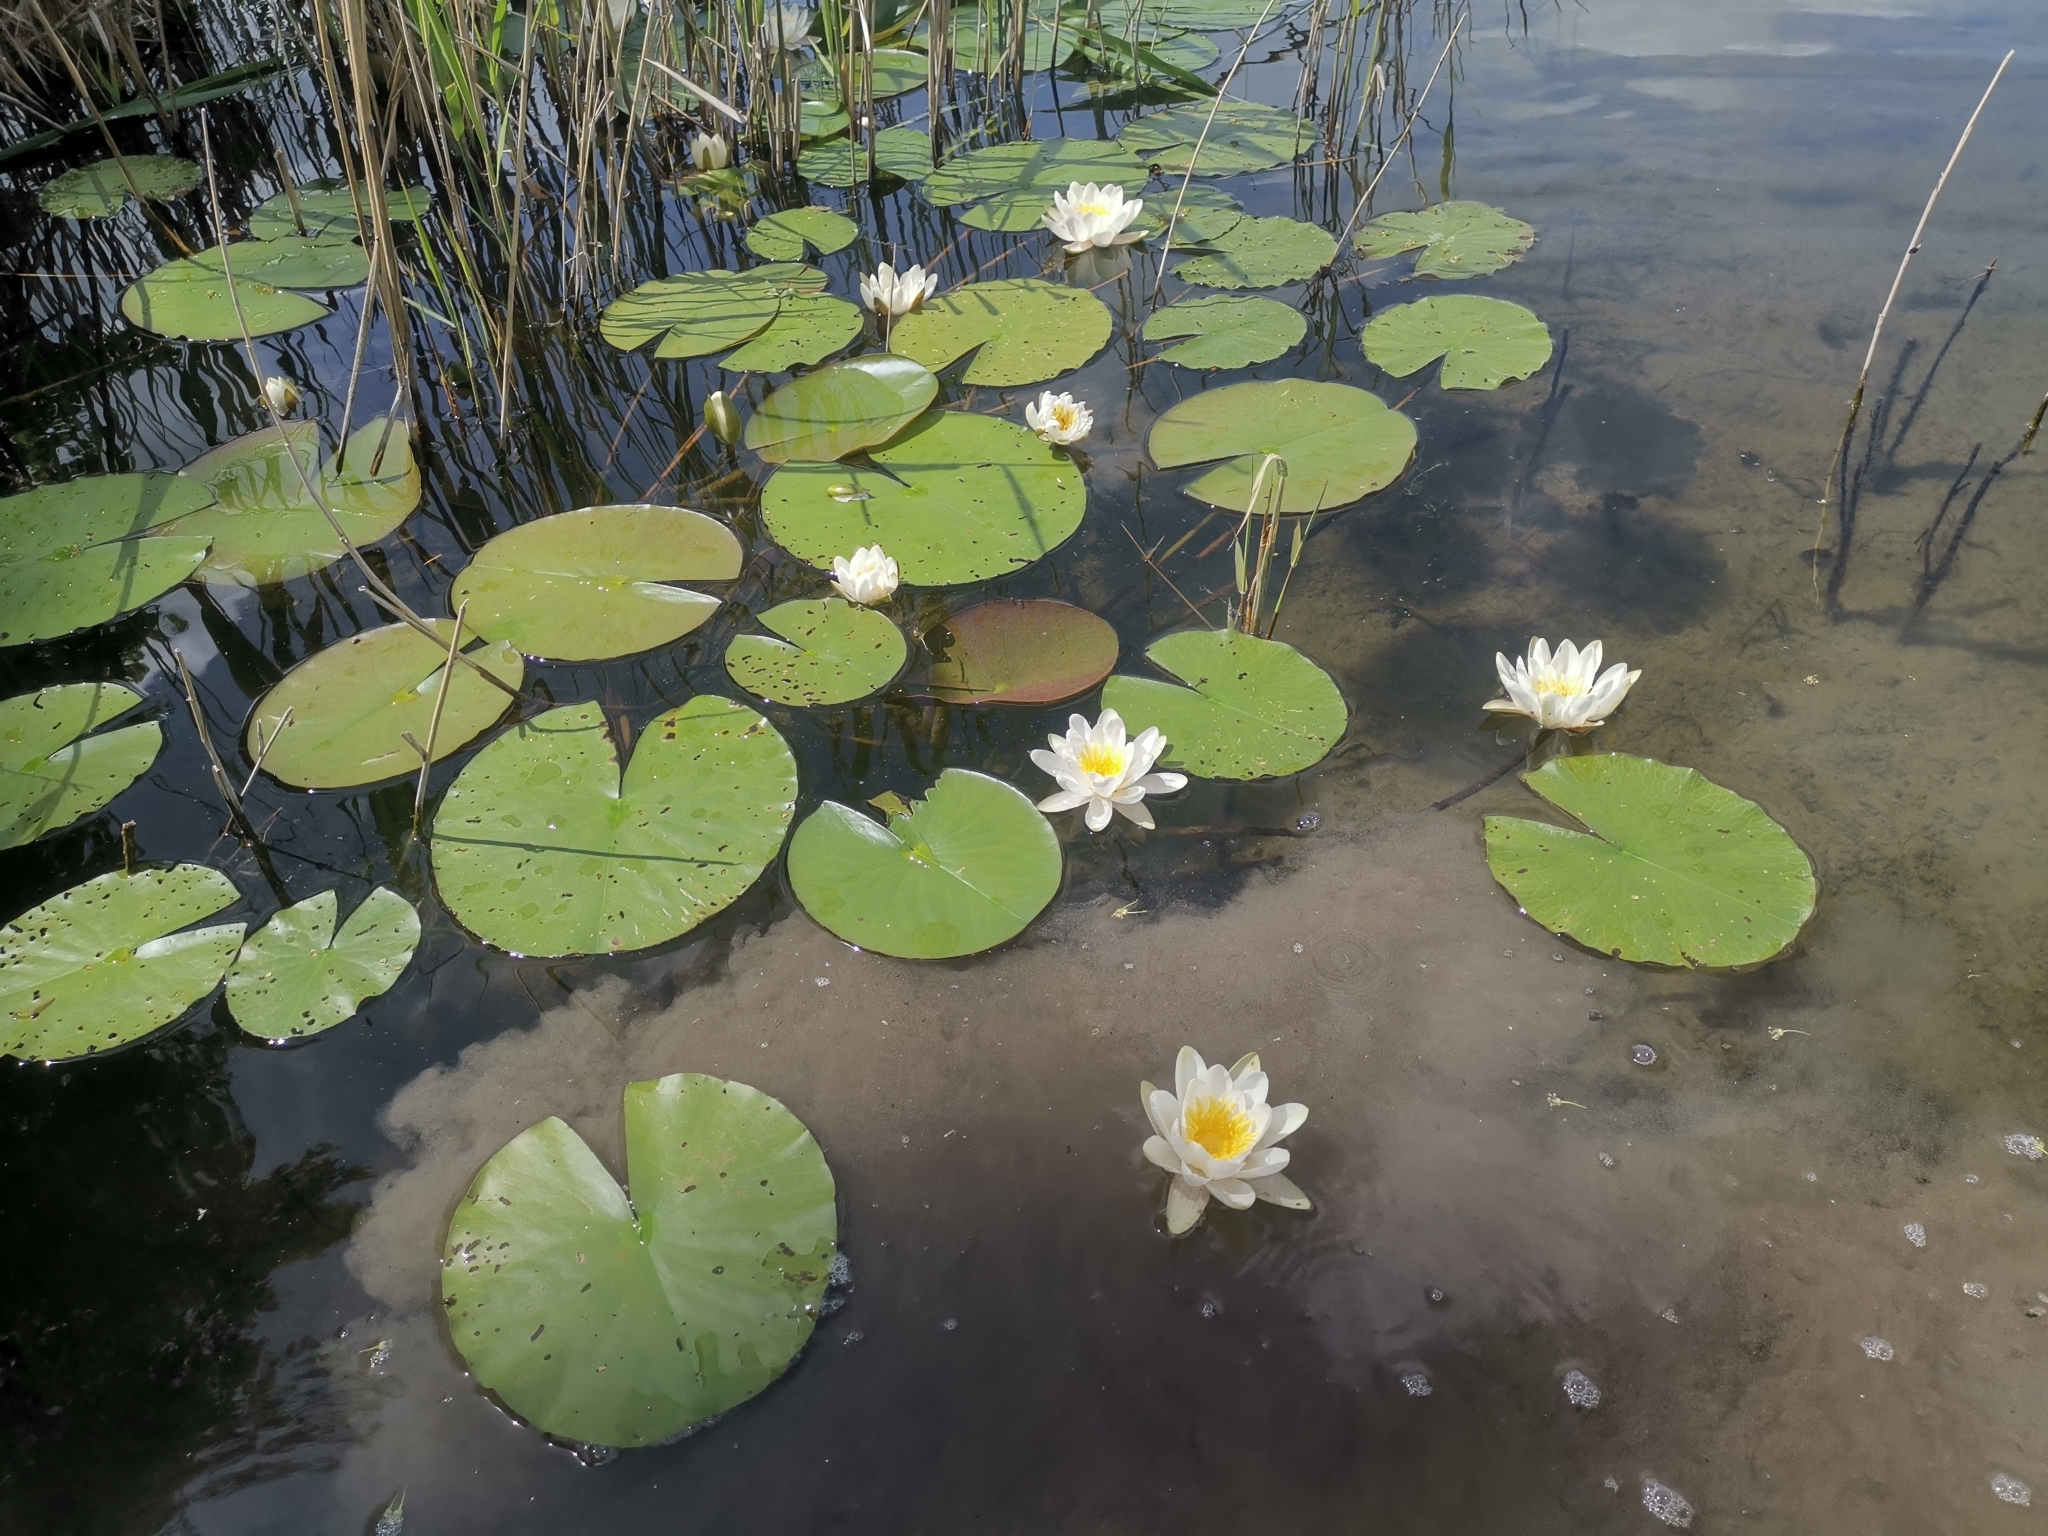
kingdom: Plantae
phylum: Tracheophyta
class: Magnoliopsida
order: Nymphaeales
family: Nymphaeaceae
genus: Nymphaea
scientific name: Nymphaea alba
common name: White water-lily
